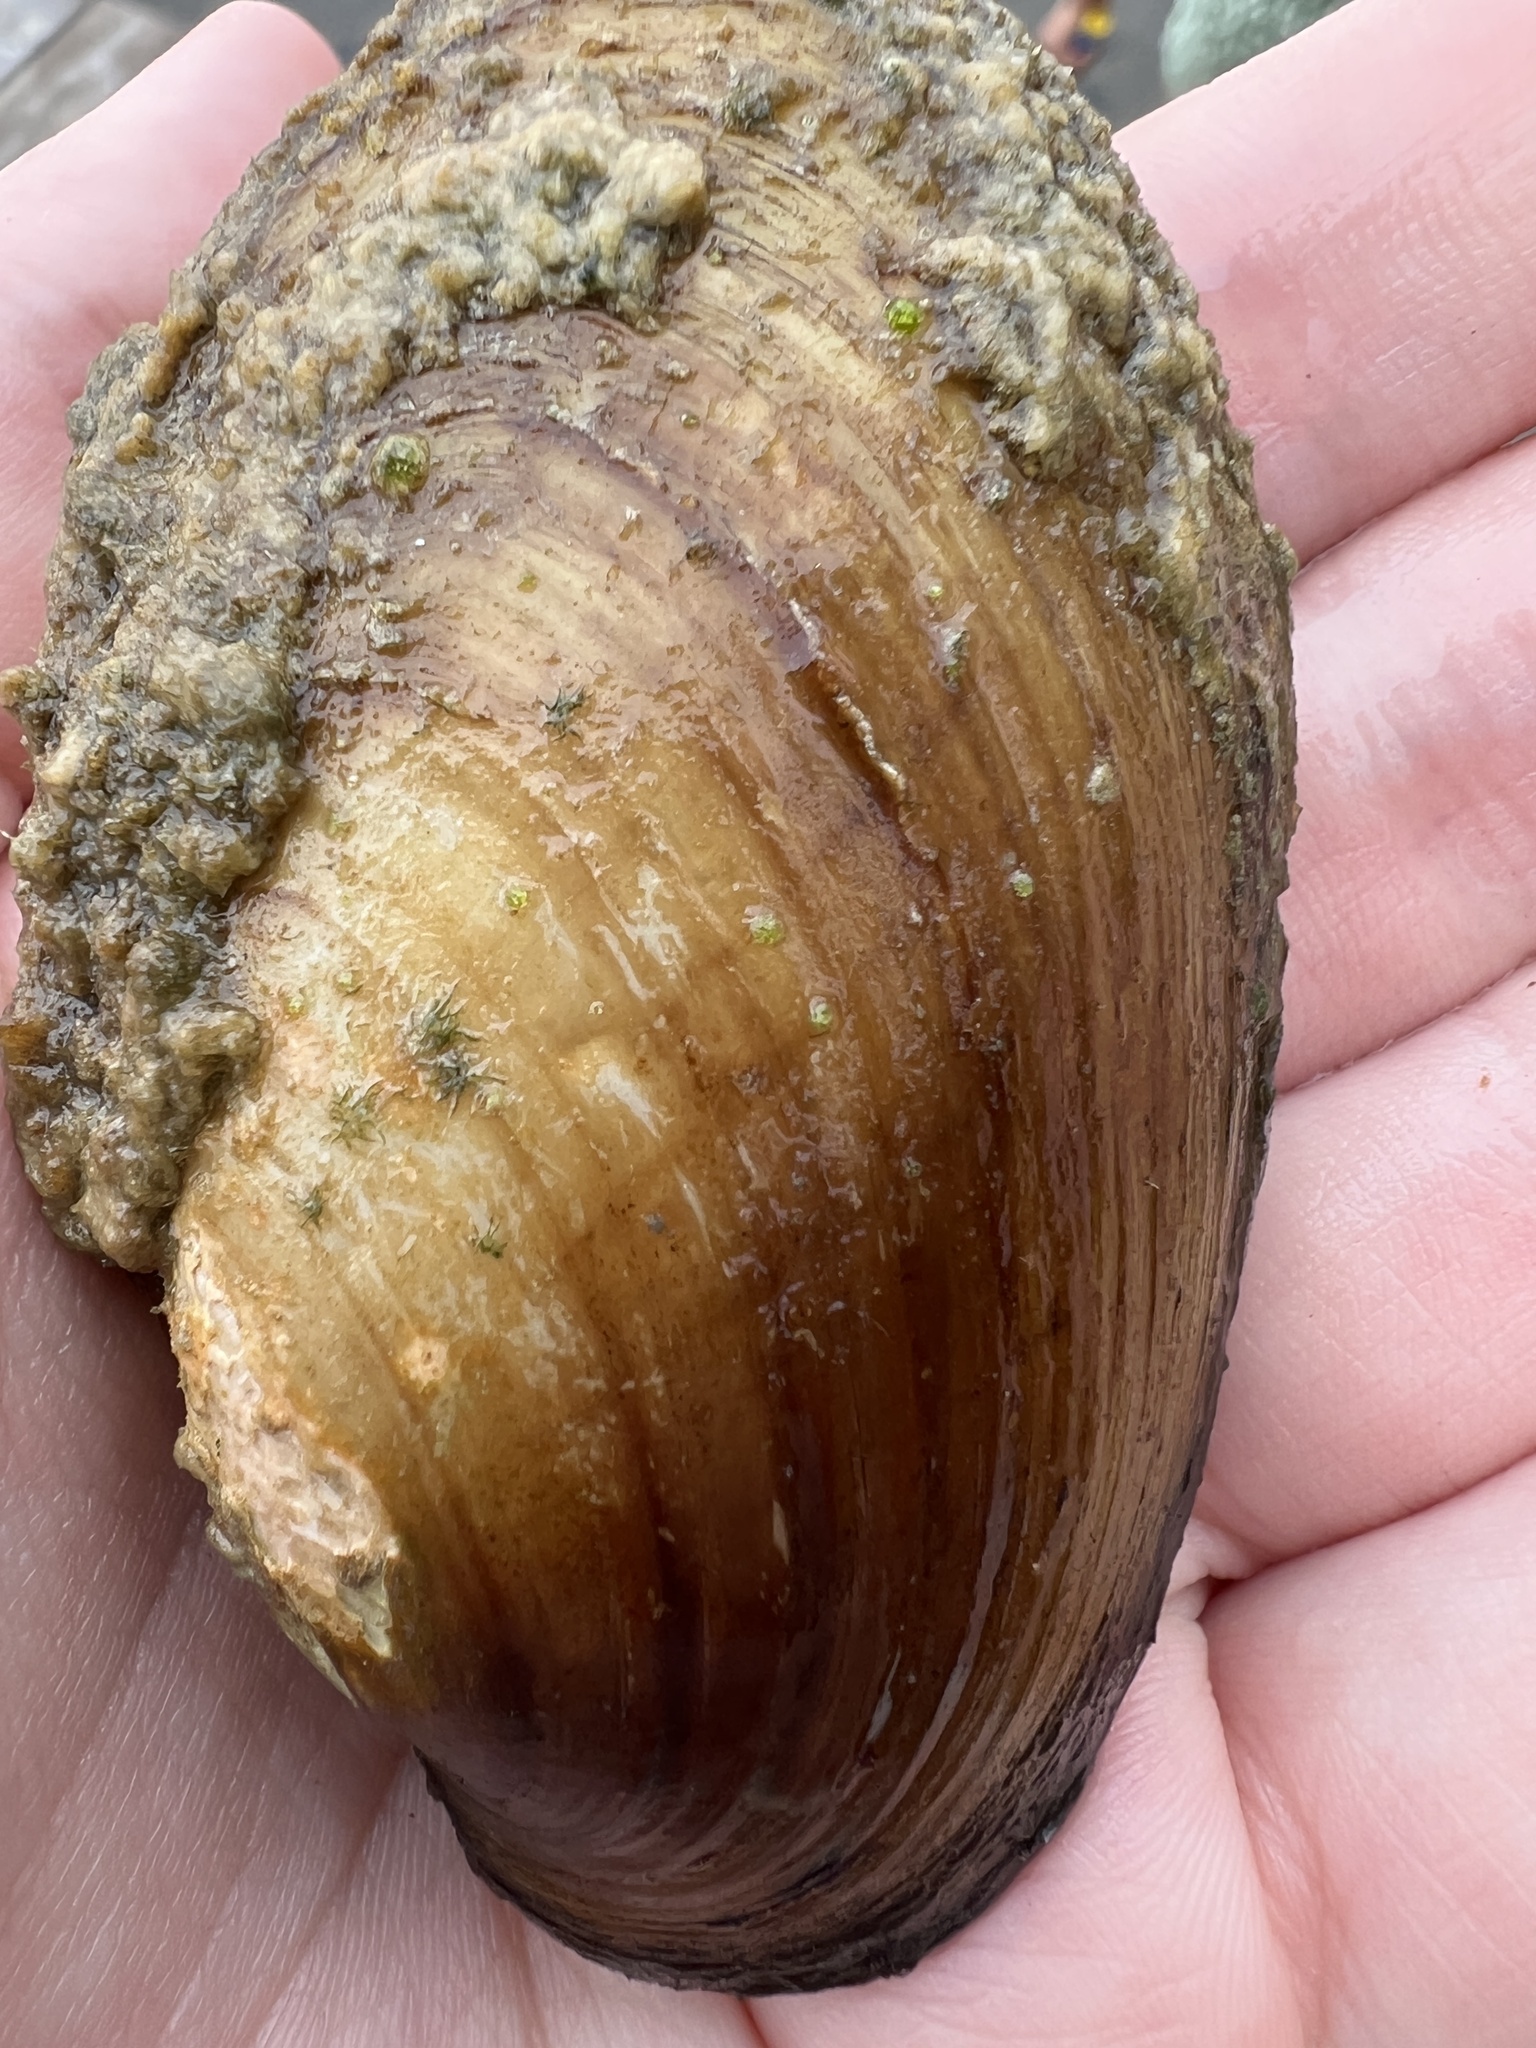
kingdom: Animalia
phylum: Mollusca
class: Bivalvia
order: Unionida
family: Unionidae
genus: Lampsilis
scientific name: Lampsilis siliquoidea
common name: Fatmucket
